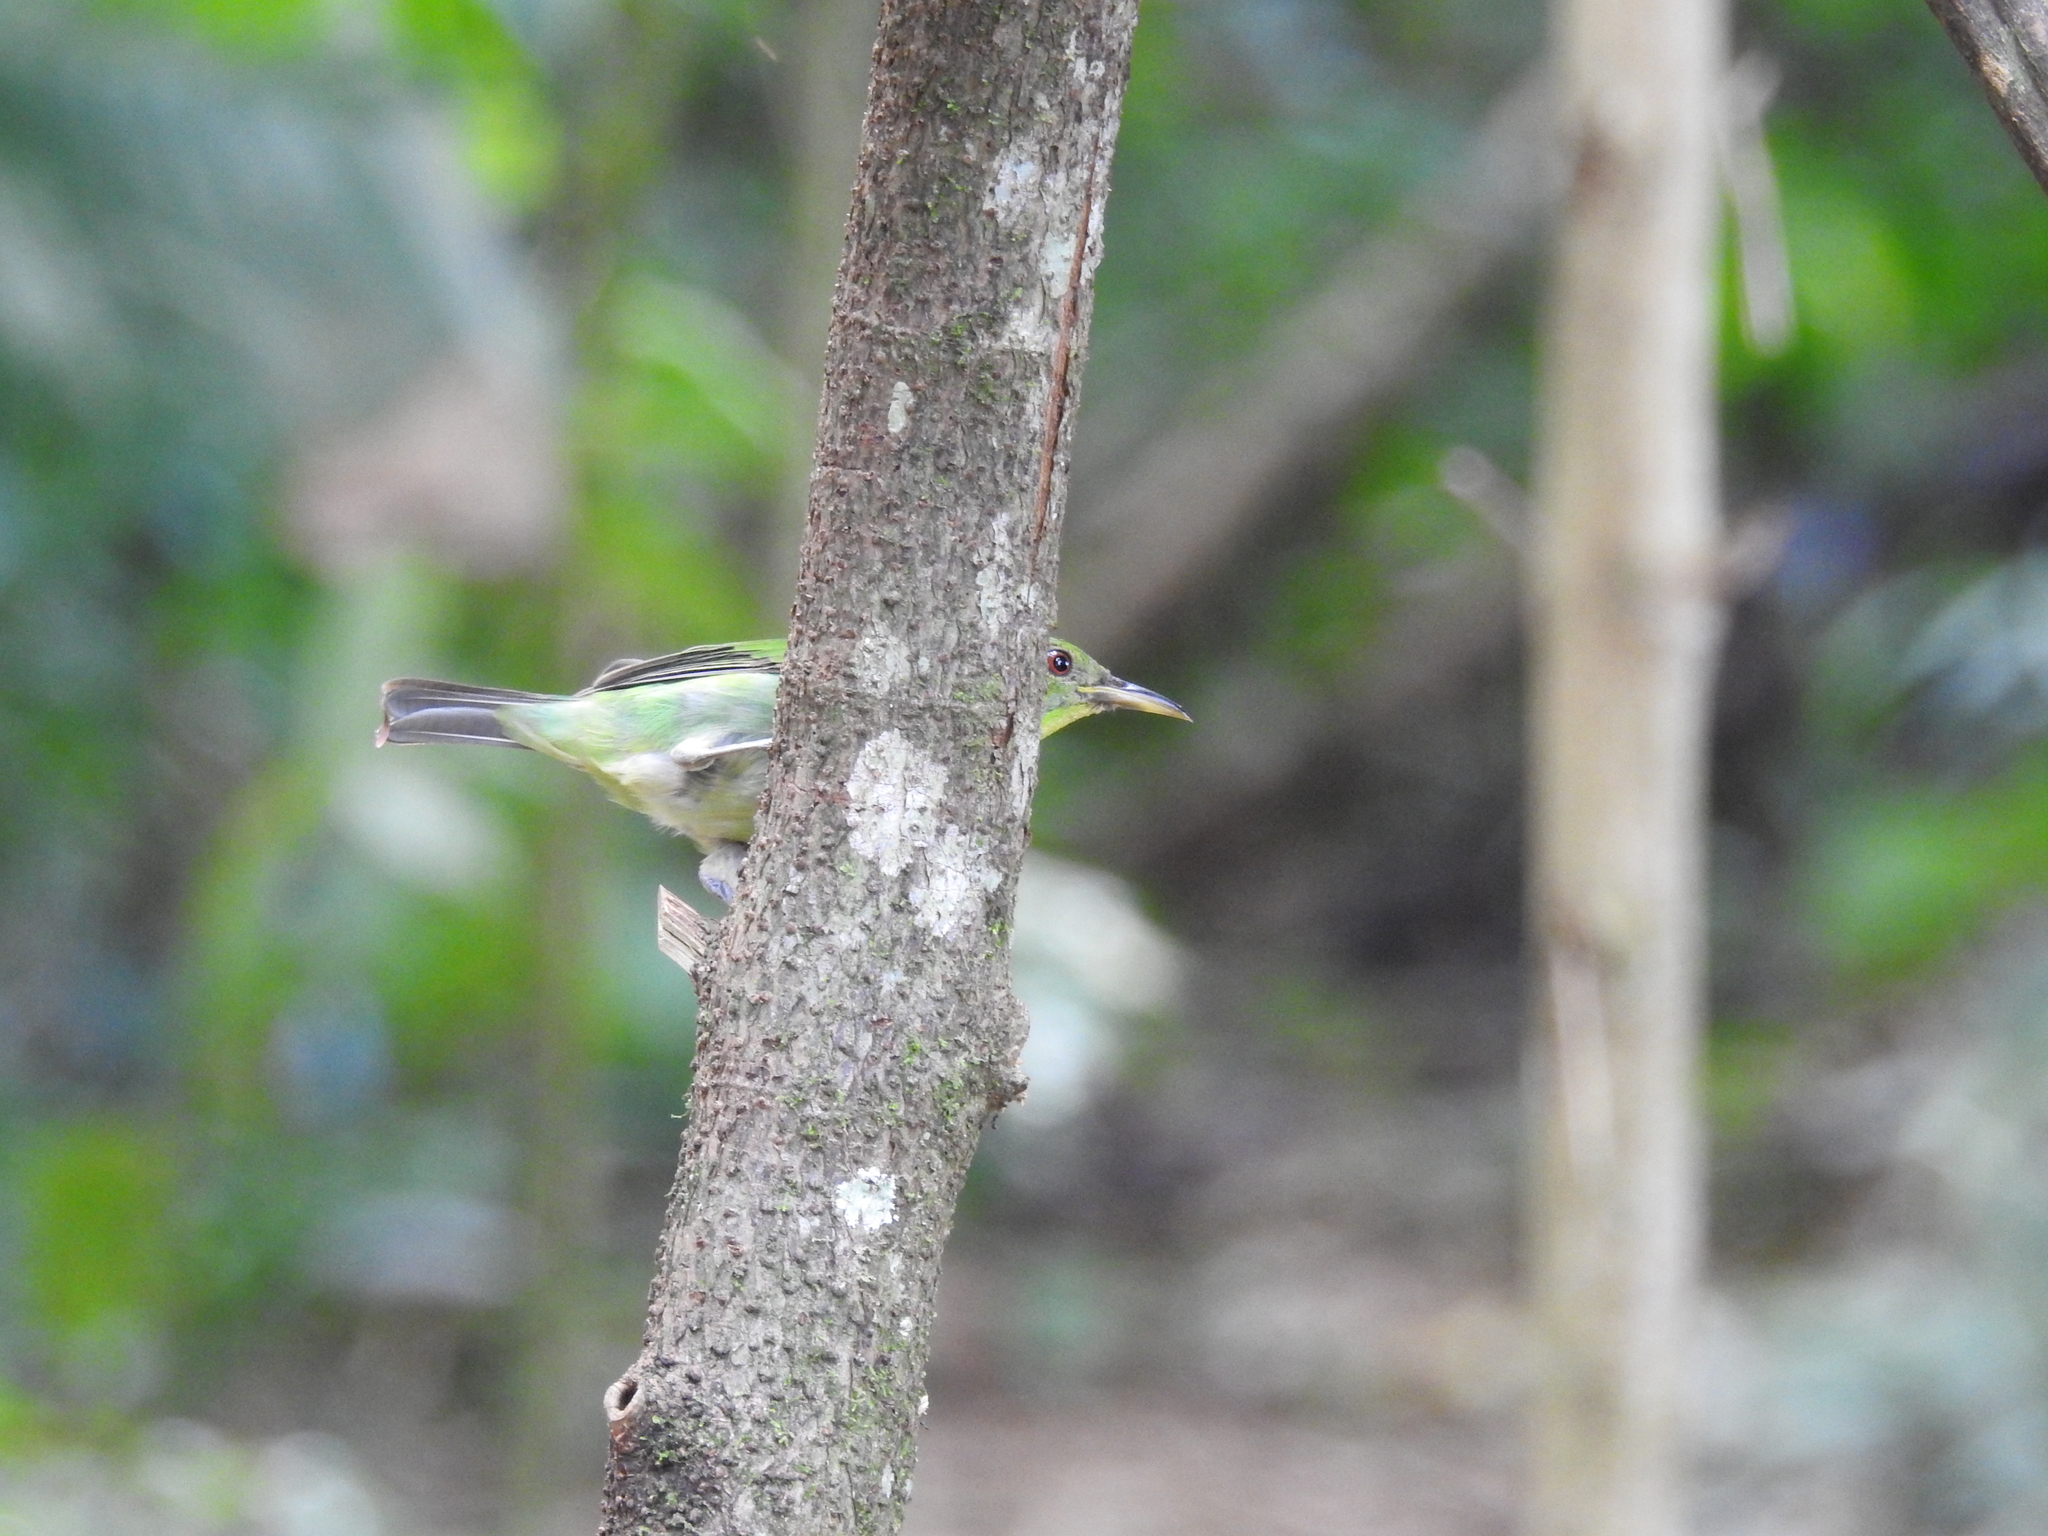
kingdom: Animalia
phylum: Chordata
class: Aves
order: Passeriformes
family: Thraupidae
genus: Chlorophanes
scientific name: Chlorophanes spiza
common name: Green honeycreeper
